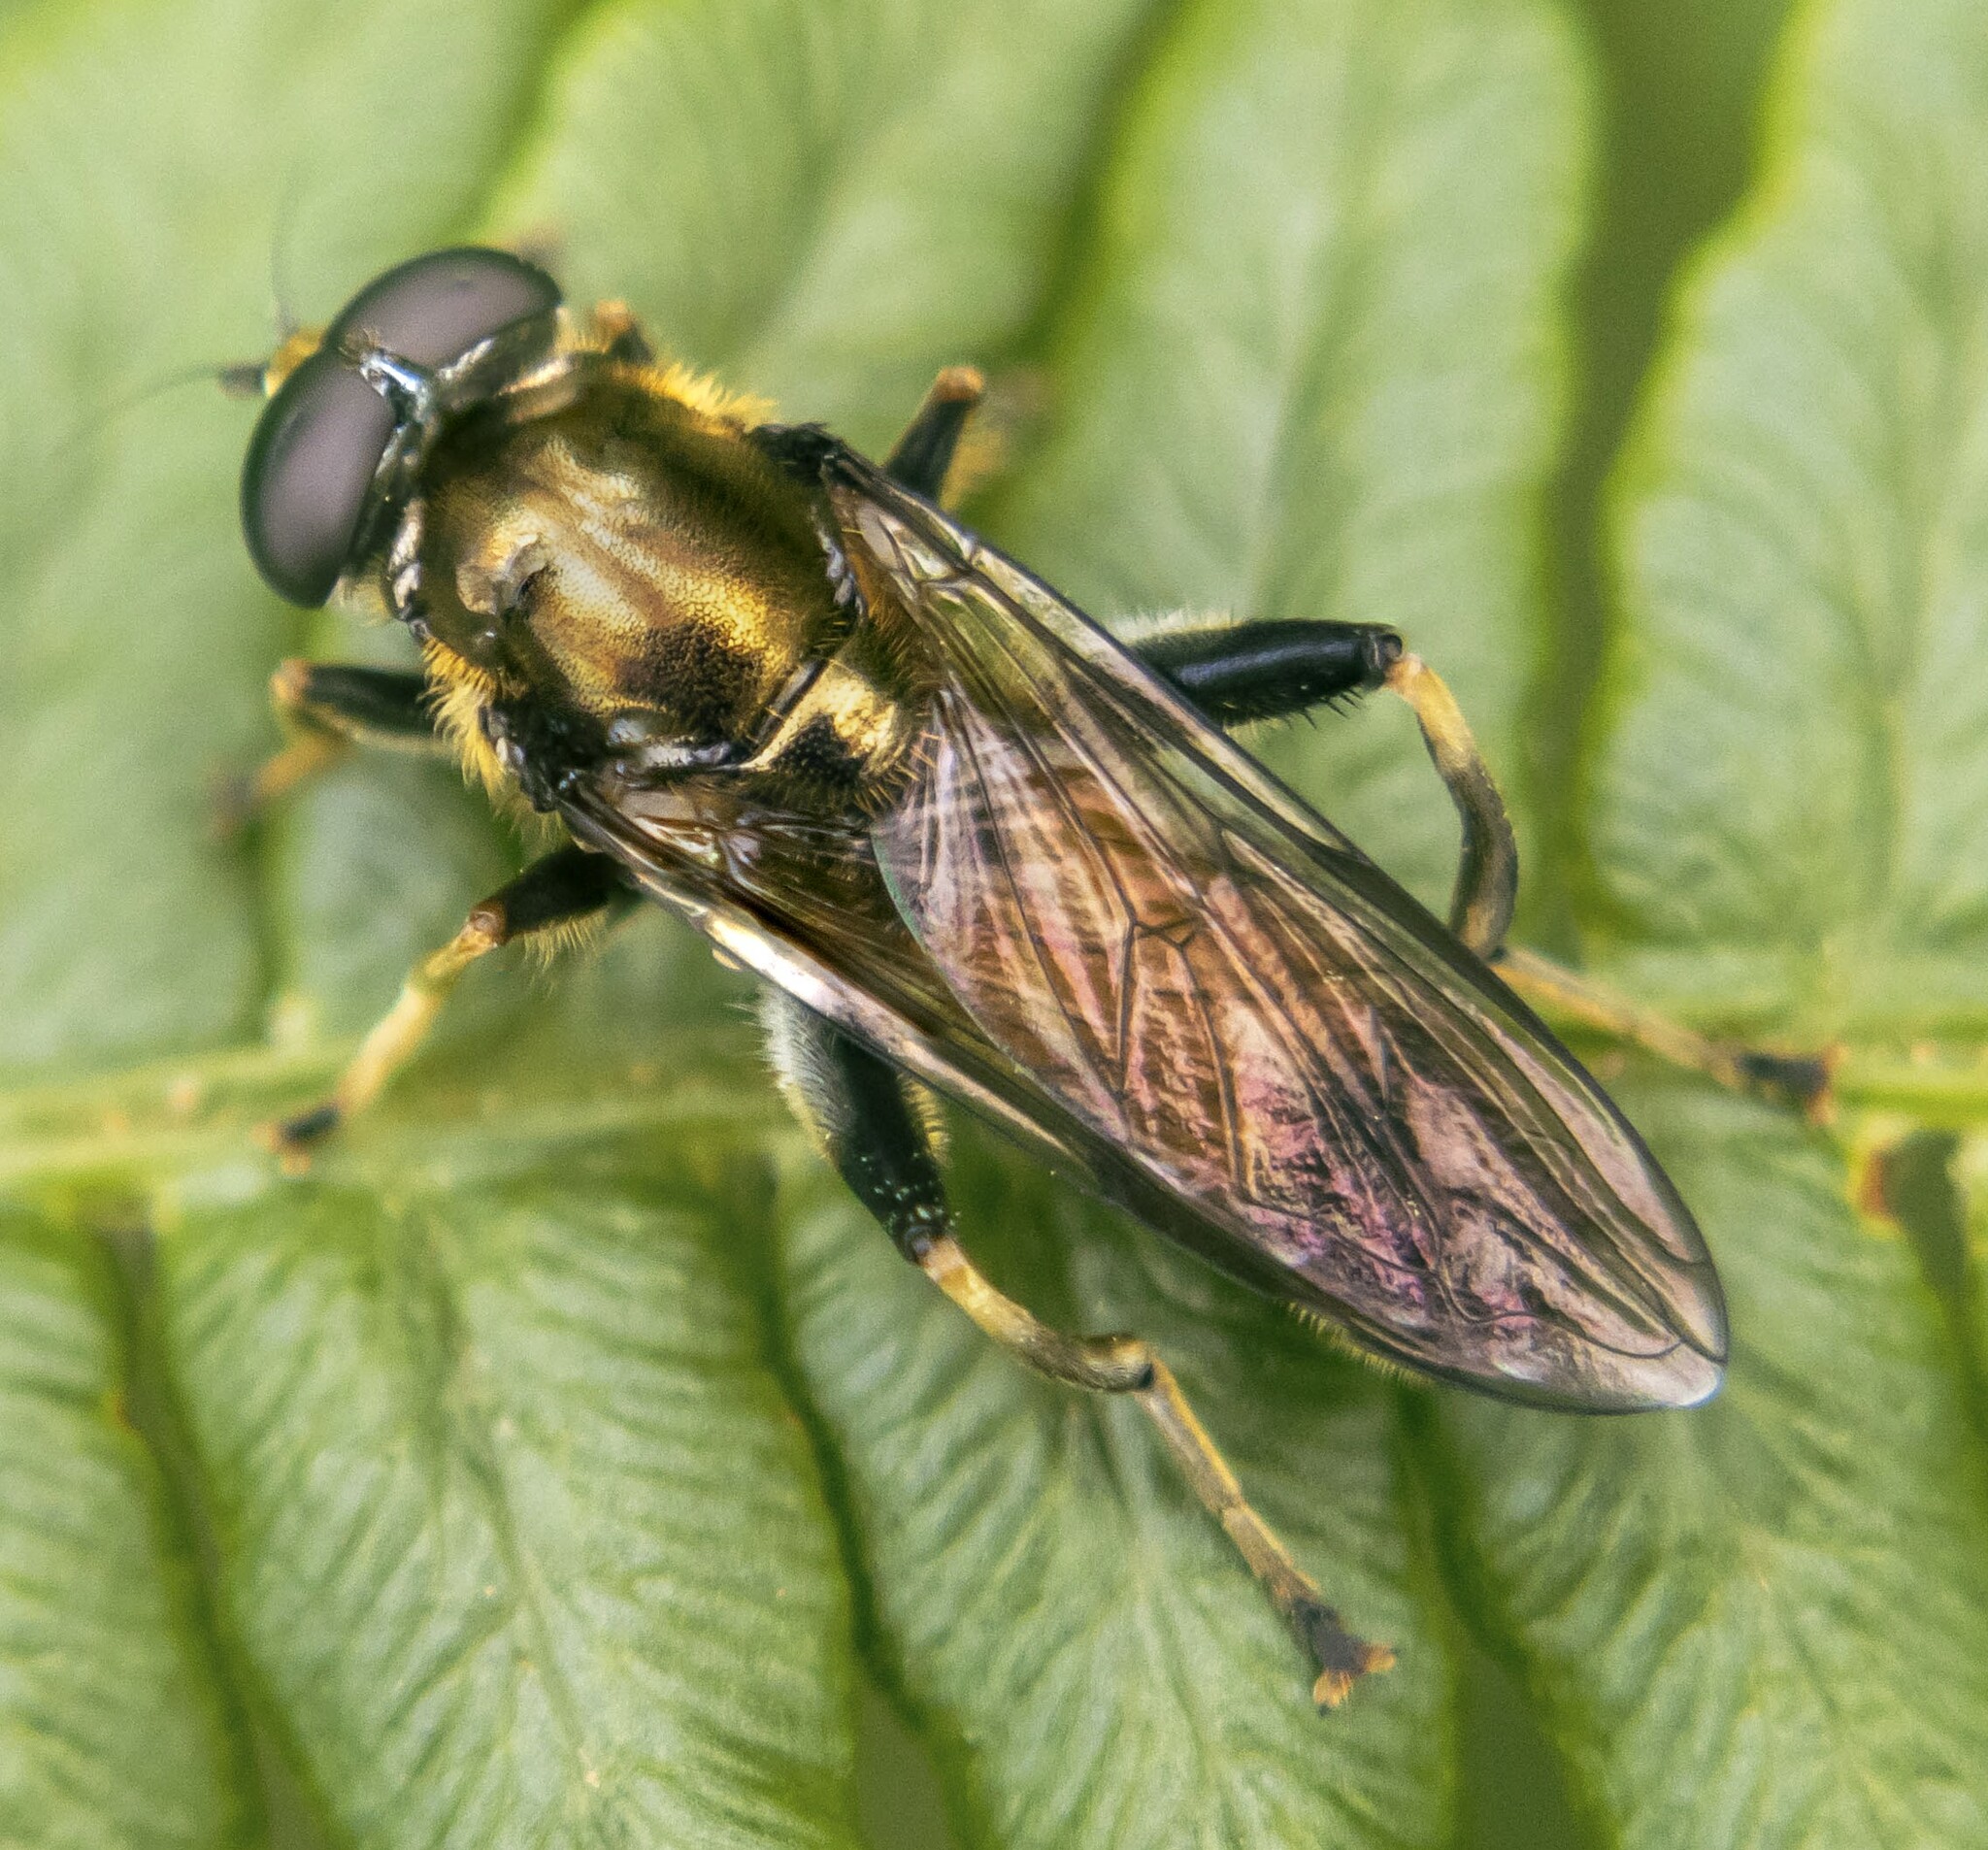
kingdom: Animalia
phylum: Arthropoda
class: Insecta
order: Diptera
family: Syrphidae
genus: Xylota
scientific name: Xylota segnis
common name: Brown-toed forest fly
